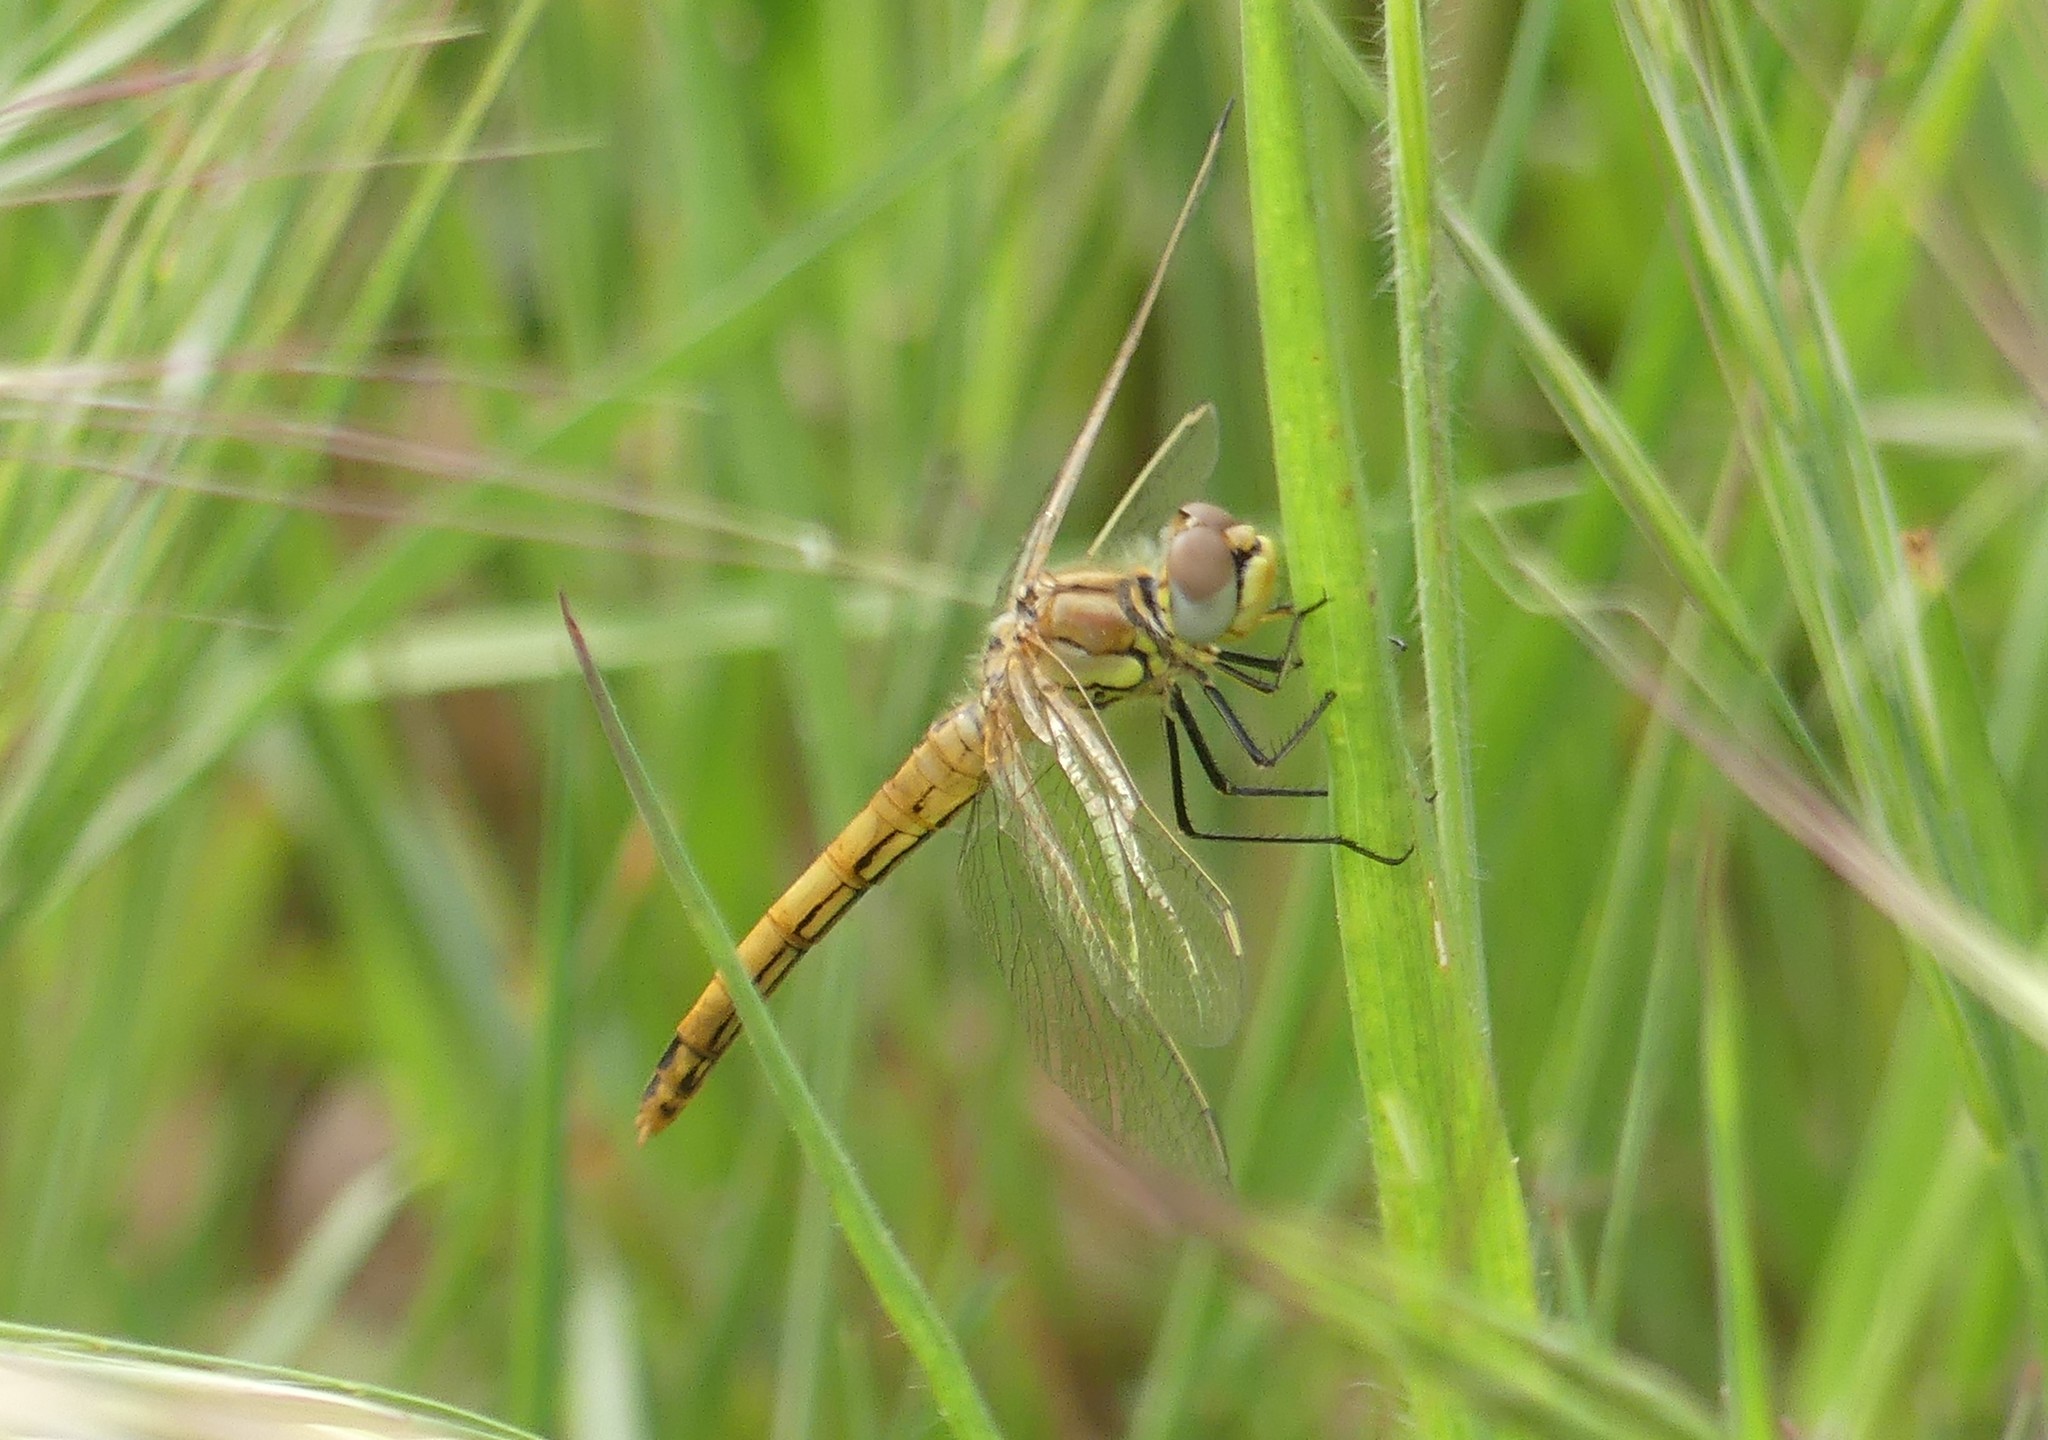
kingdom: Animalia
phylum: Arthropoda
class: Insecta
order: Odonata
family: Libellulidae
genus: Sympetrum
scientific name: Sympetrum fonscolombii
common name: Red-veined darter
